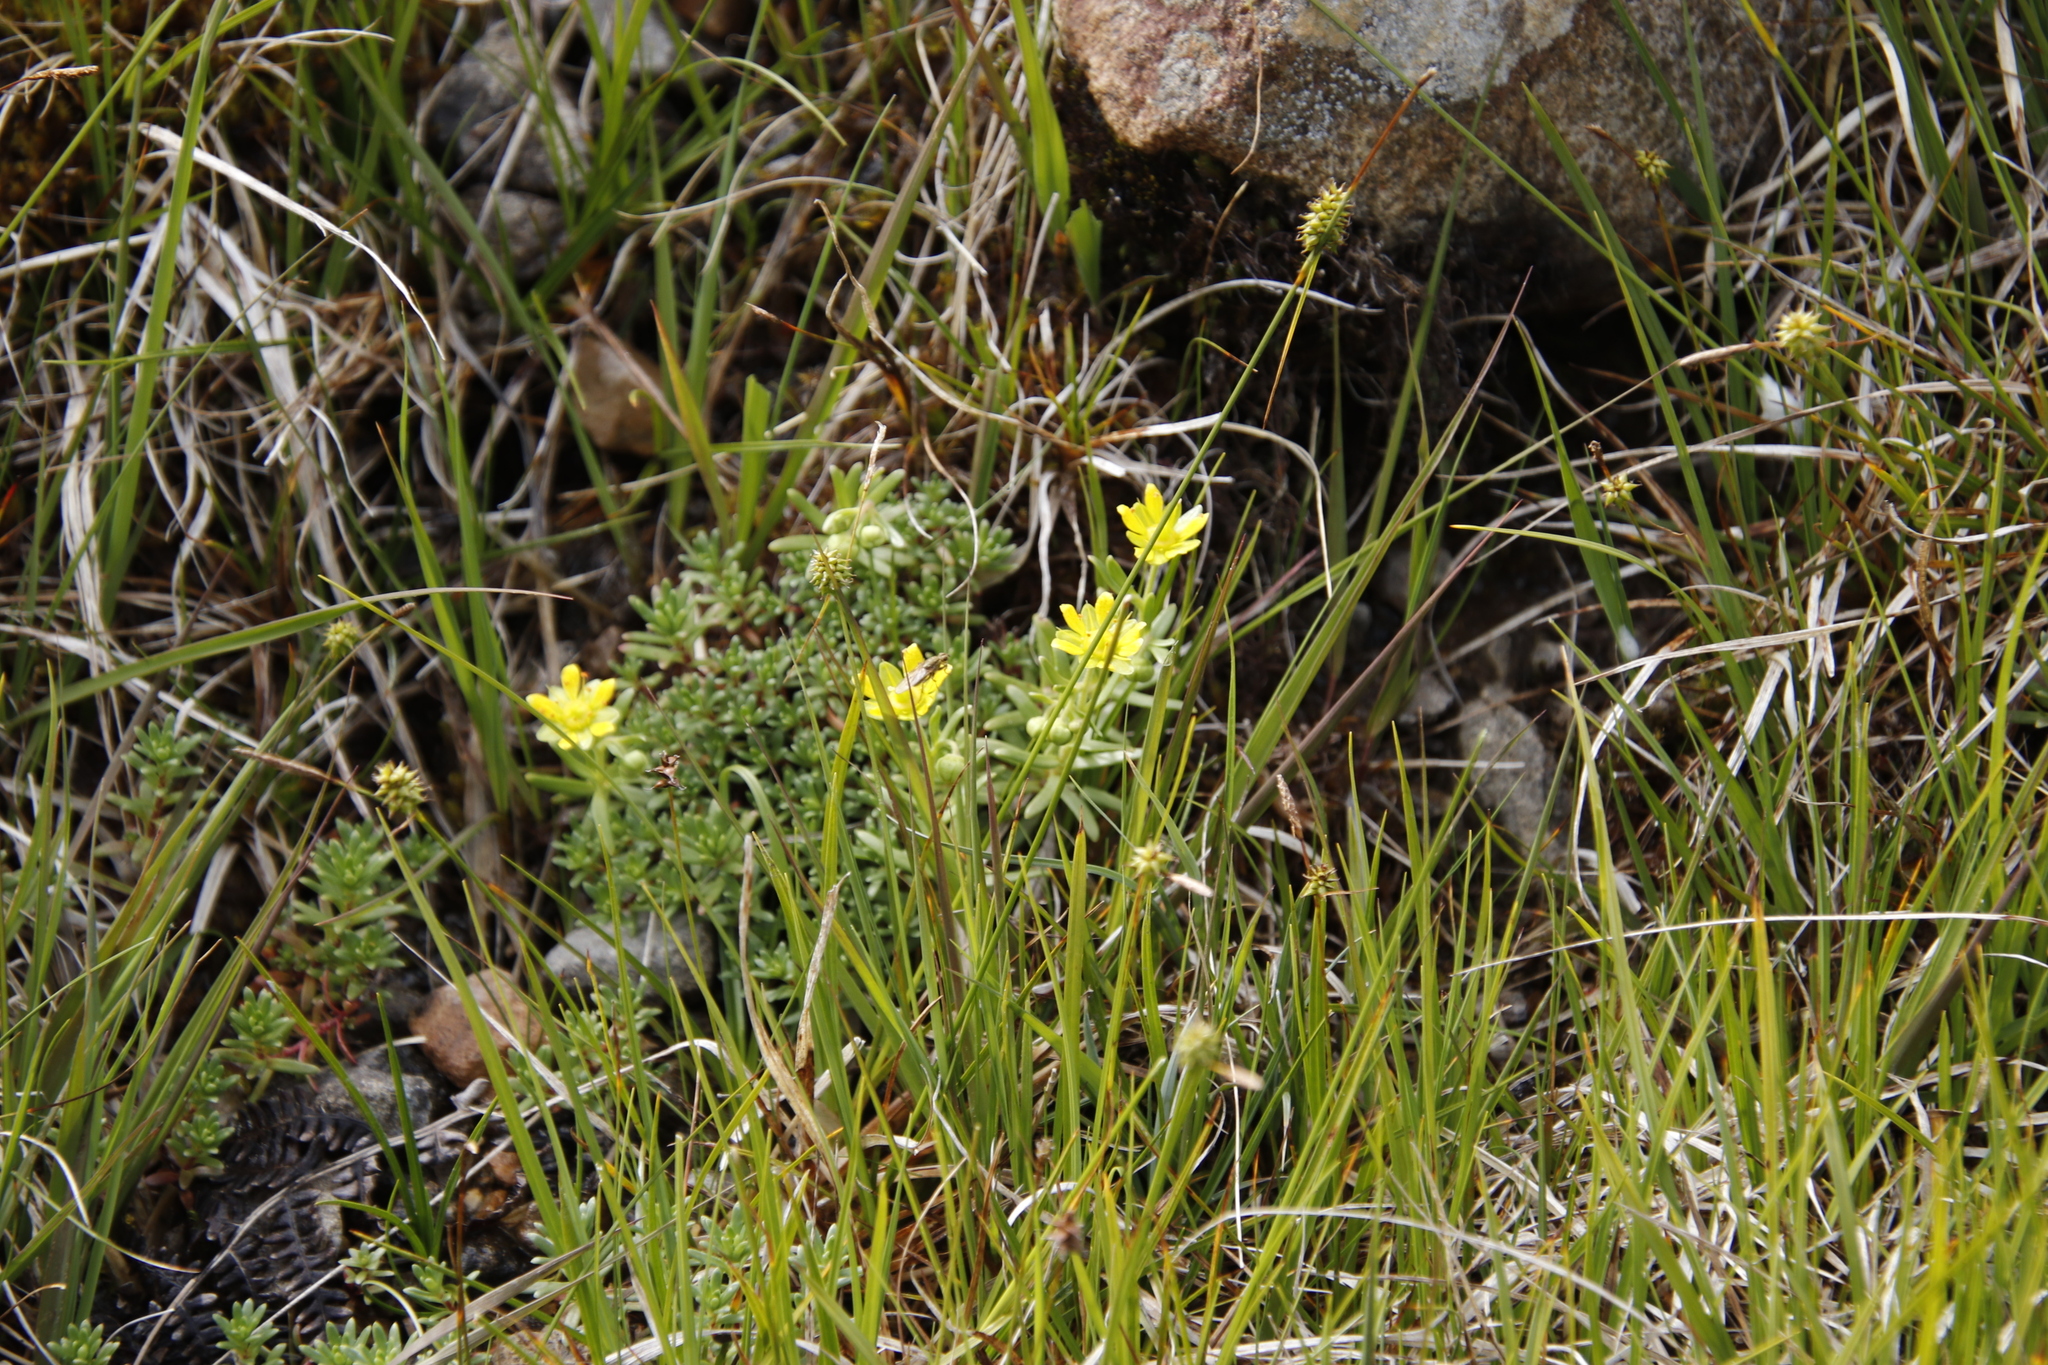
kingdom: Plantae
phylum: Tracheophyta
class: Magnoliopsida
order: Saxifragales
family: Saxifragaceae
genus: Saxifraga
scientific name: Saxifraga aizoides
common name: Yellow mountain saxifrage
